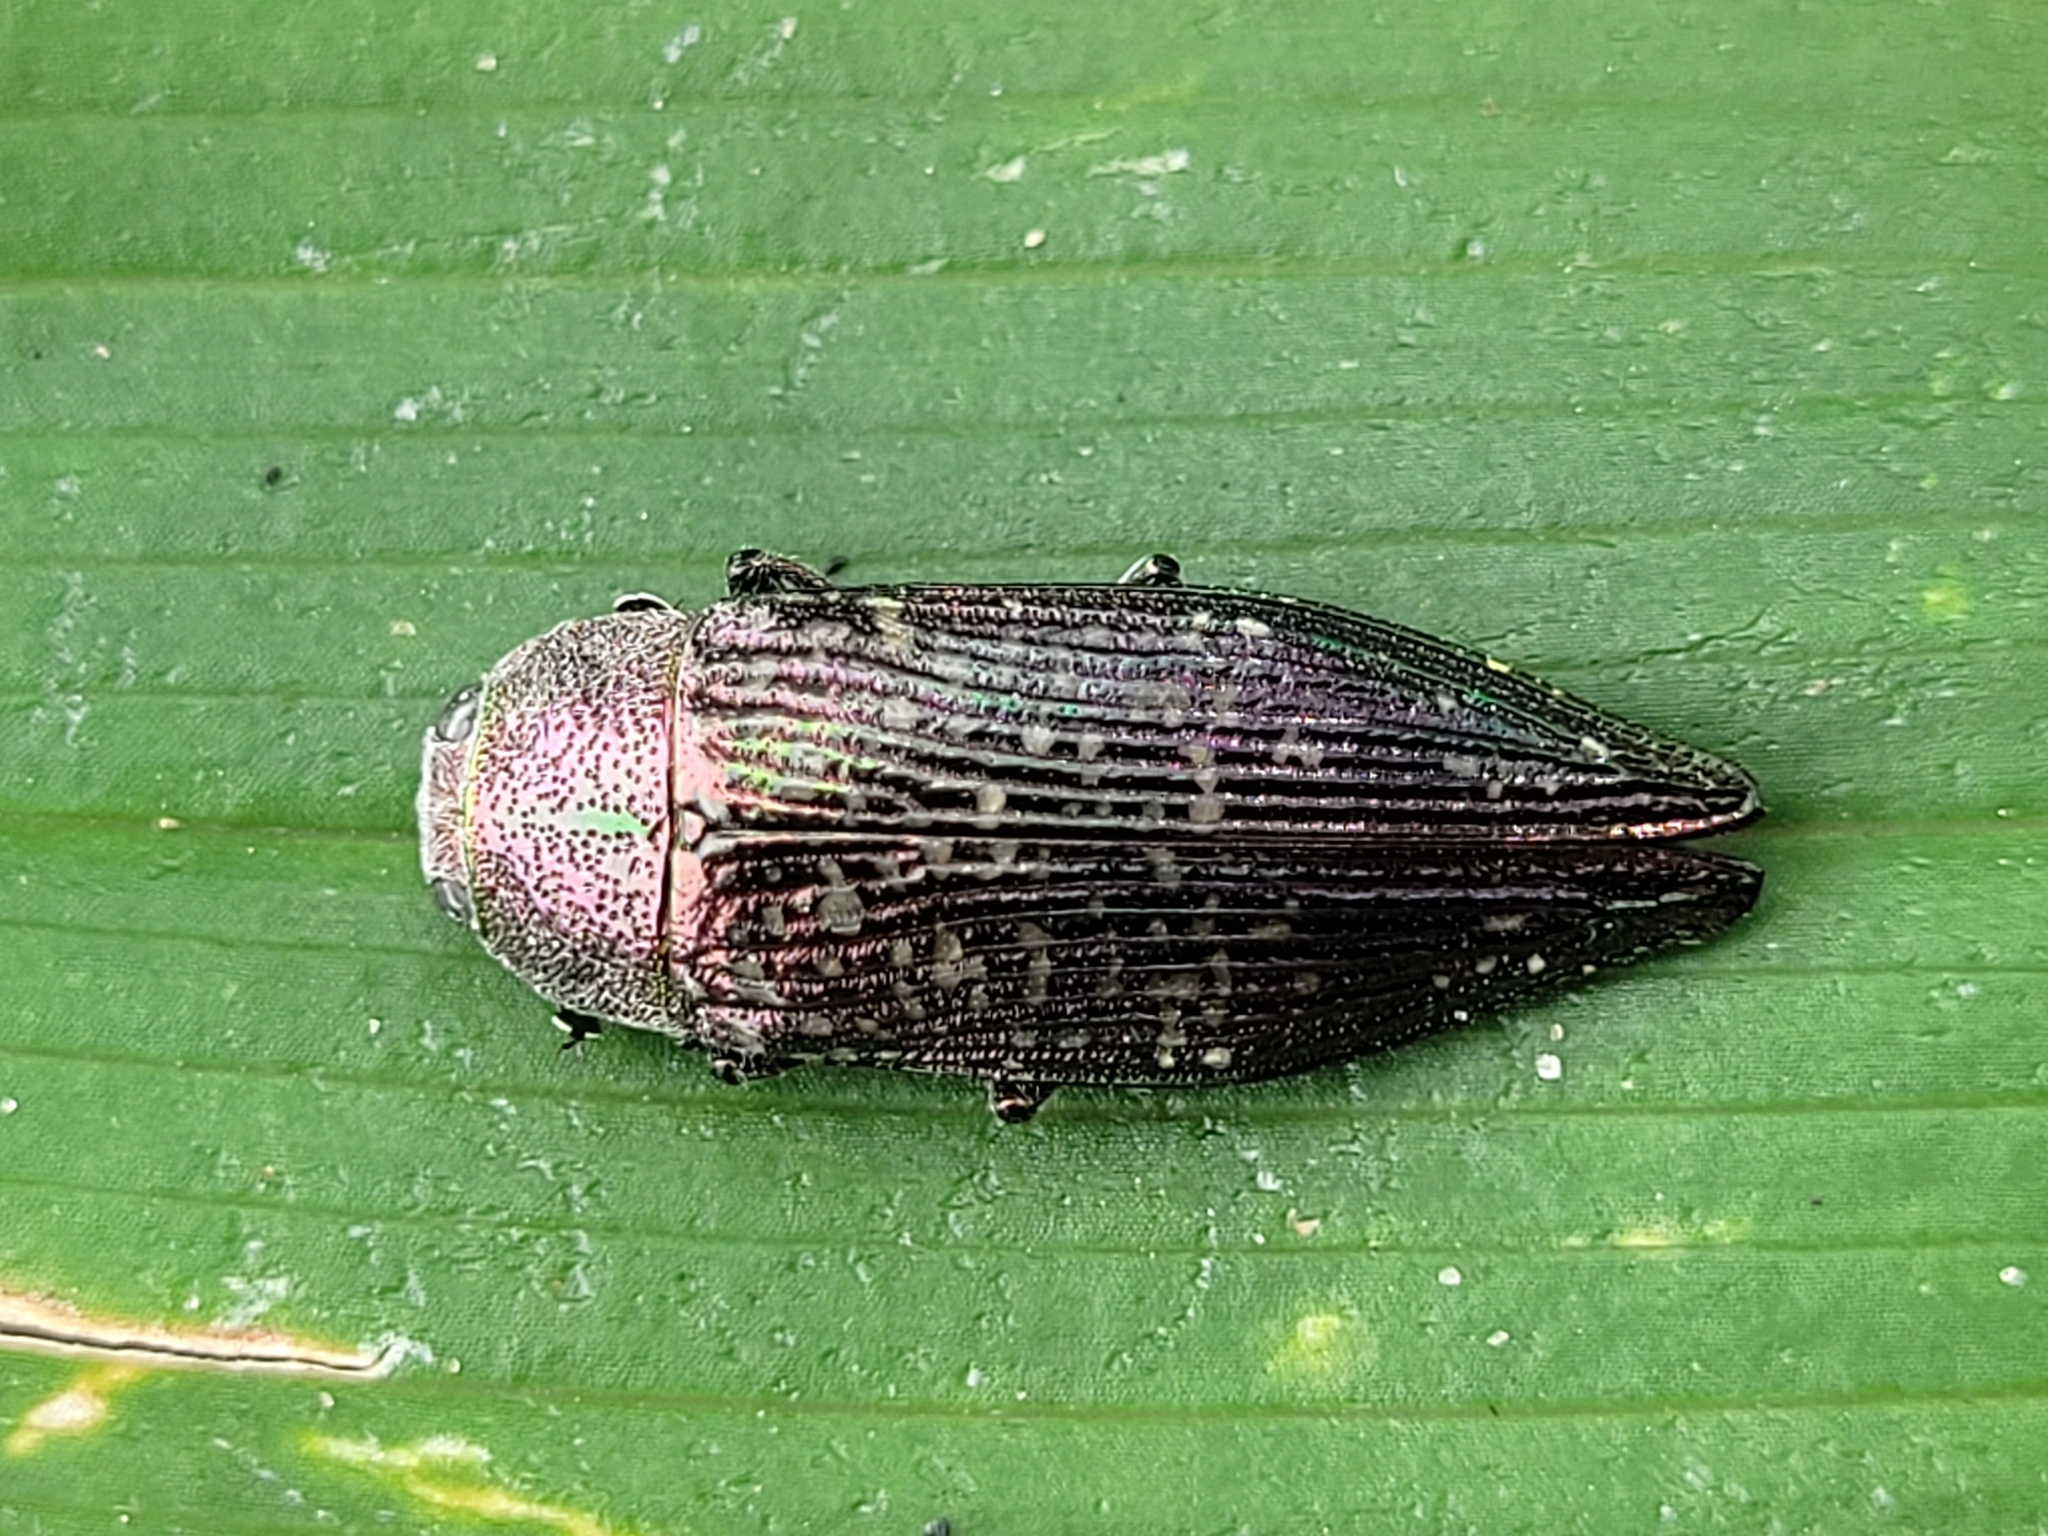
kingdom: Animalia
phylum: Arthropoda
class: Insecta
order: Coleoptera
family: Buprestidae
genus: Buprestis
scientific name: Buprestis confluenta
